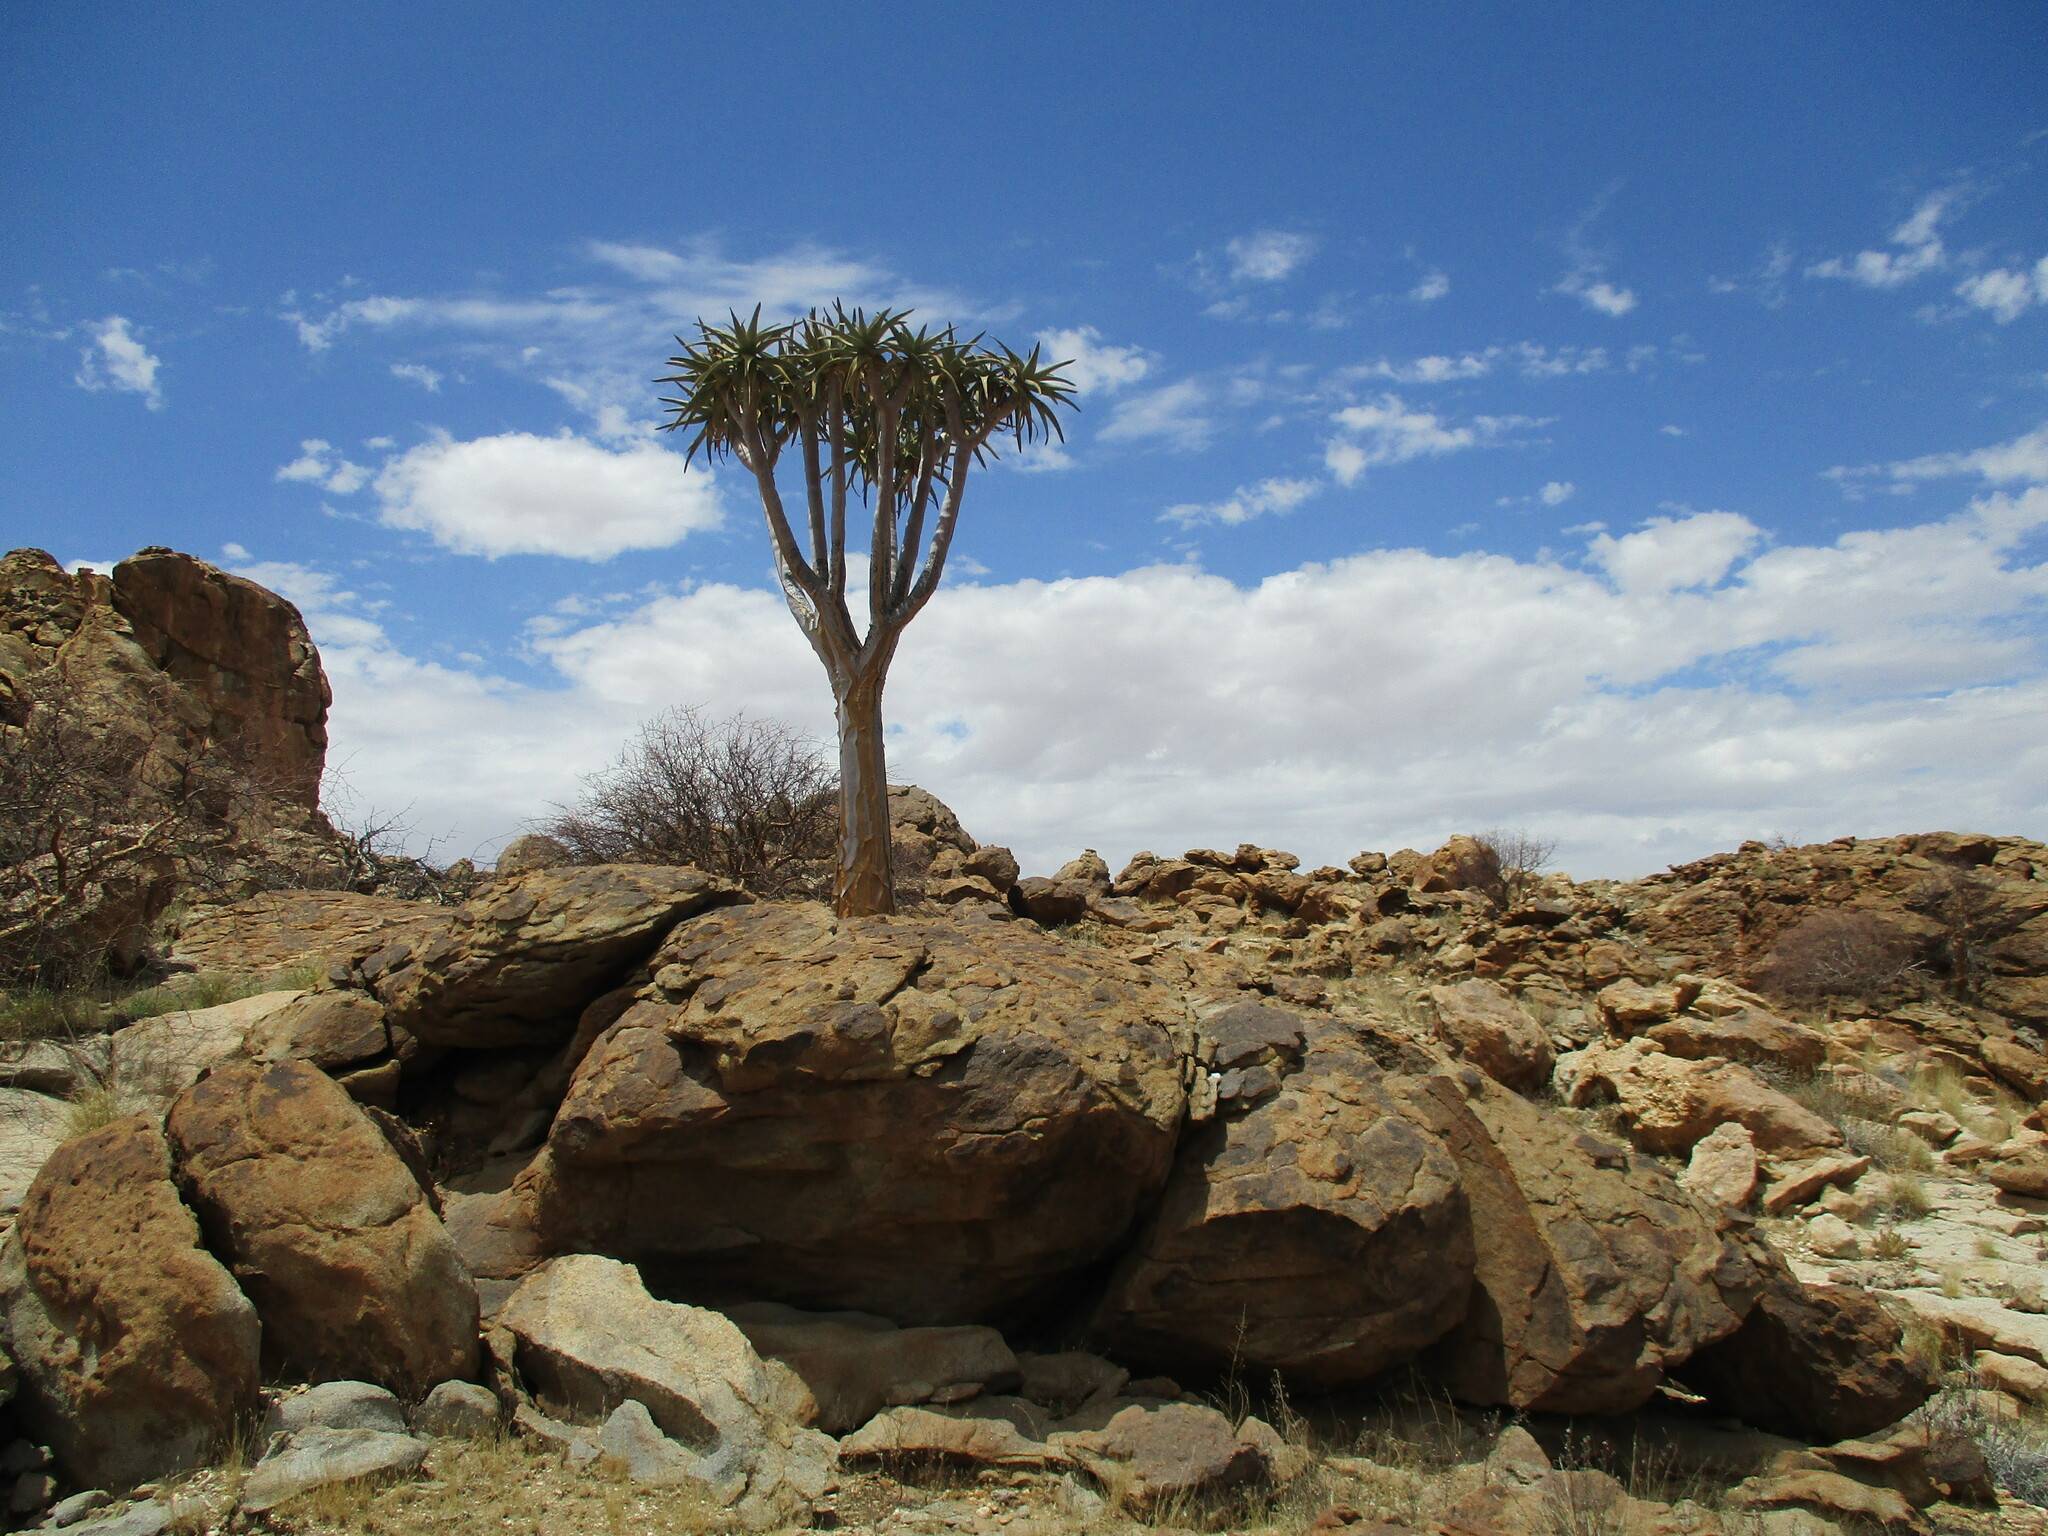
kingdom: Plantae
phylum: Tracheophyta
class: Liliopsida
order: Asparagales
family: Asphodelaceae
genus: Aloidendron
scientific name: Aloidendron dichotomum
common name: Quiver tree
